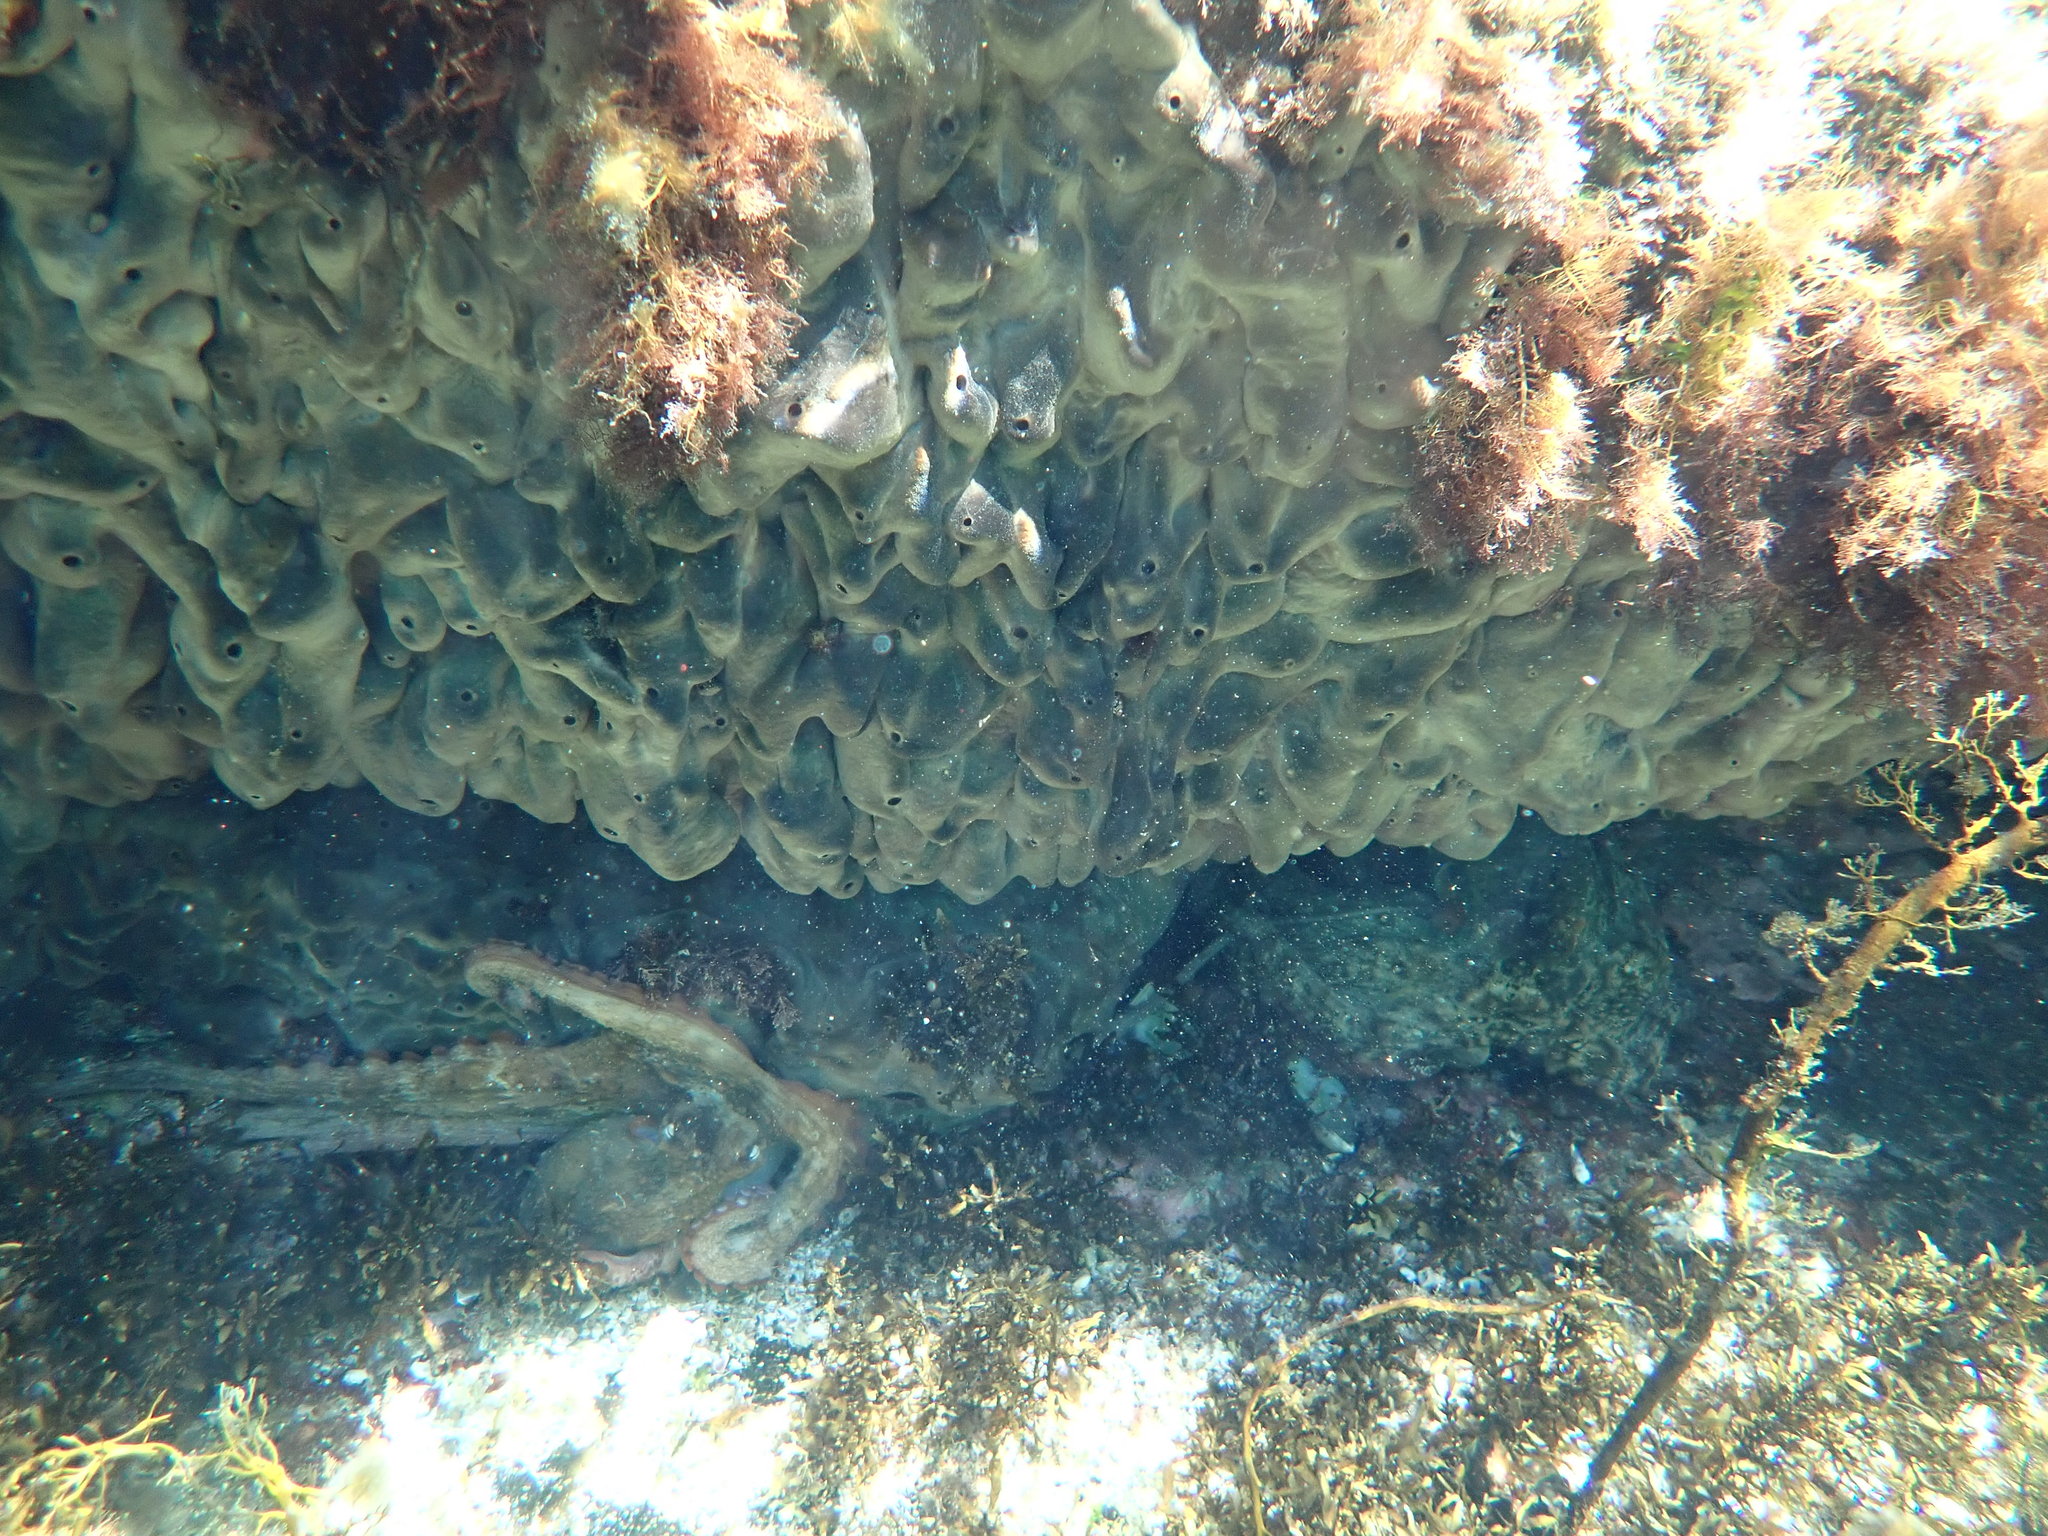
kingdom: Animalia
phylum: Mollusca
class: Cephalopoda
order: Octopoda
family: Octopodidae
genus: Octopus
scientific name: Octopus tetricus
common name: Sydney octopus
